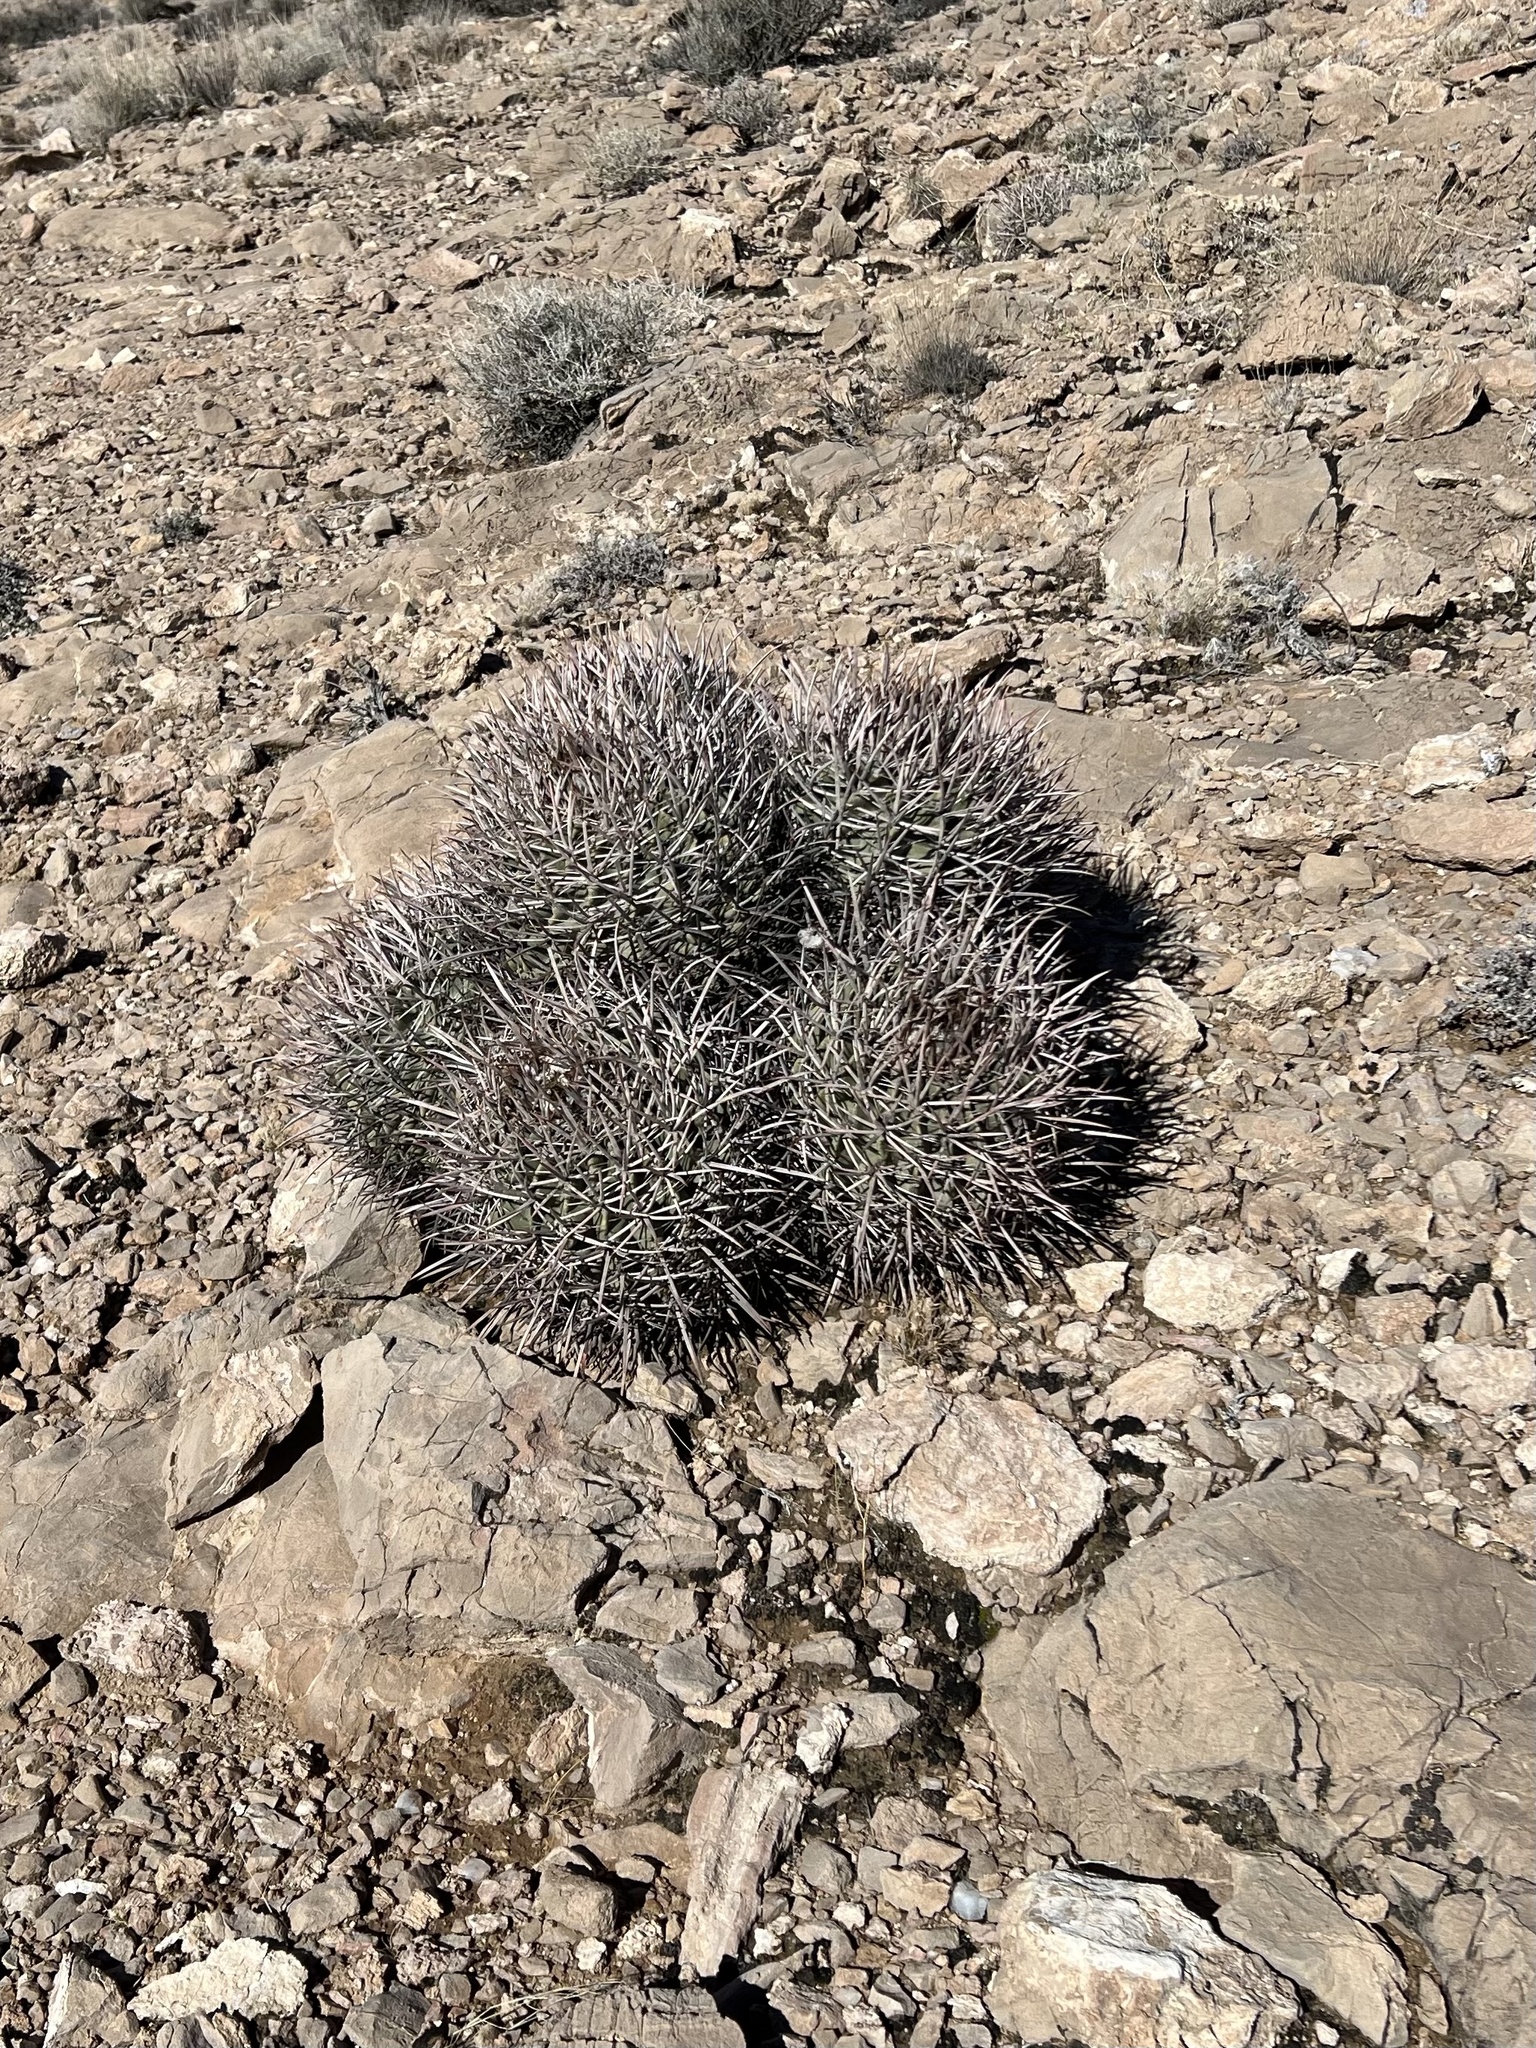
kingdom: Plantae
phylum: Tracheophyta
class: Magnoliopsida
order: Caryophyllales
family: Cactaceae
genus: Echinocactus
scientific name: Echinocactus polycephalus
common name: Cottontop cactus
